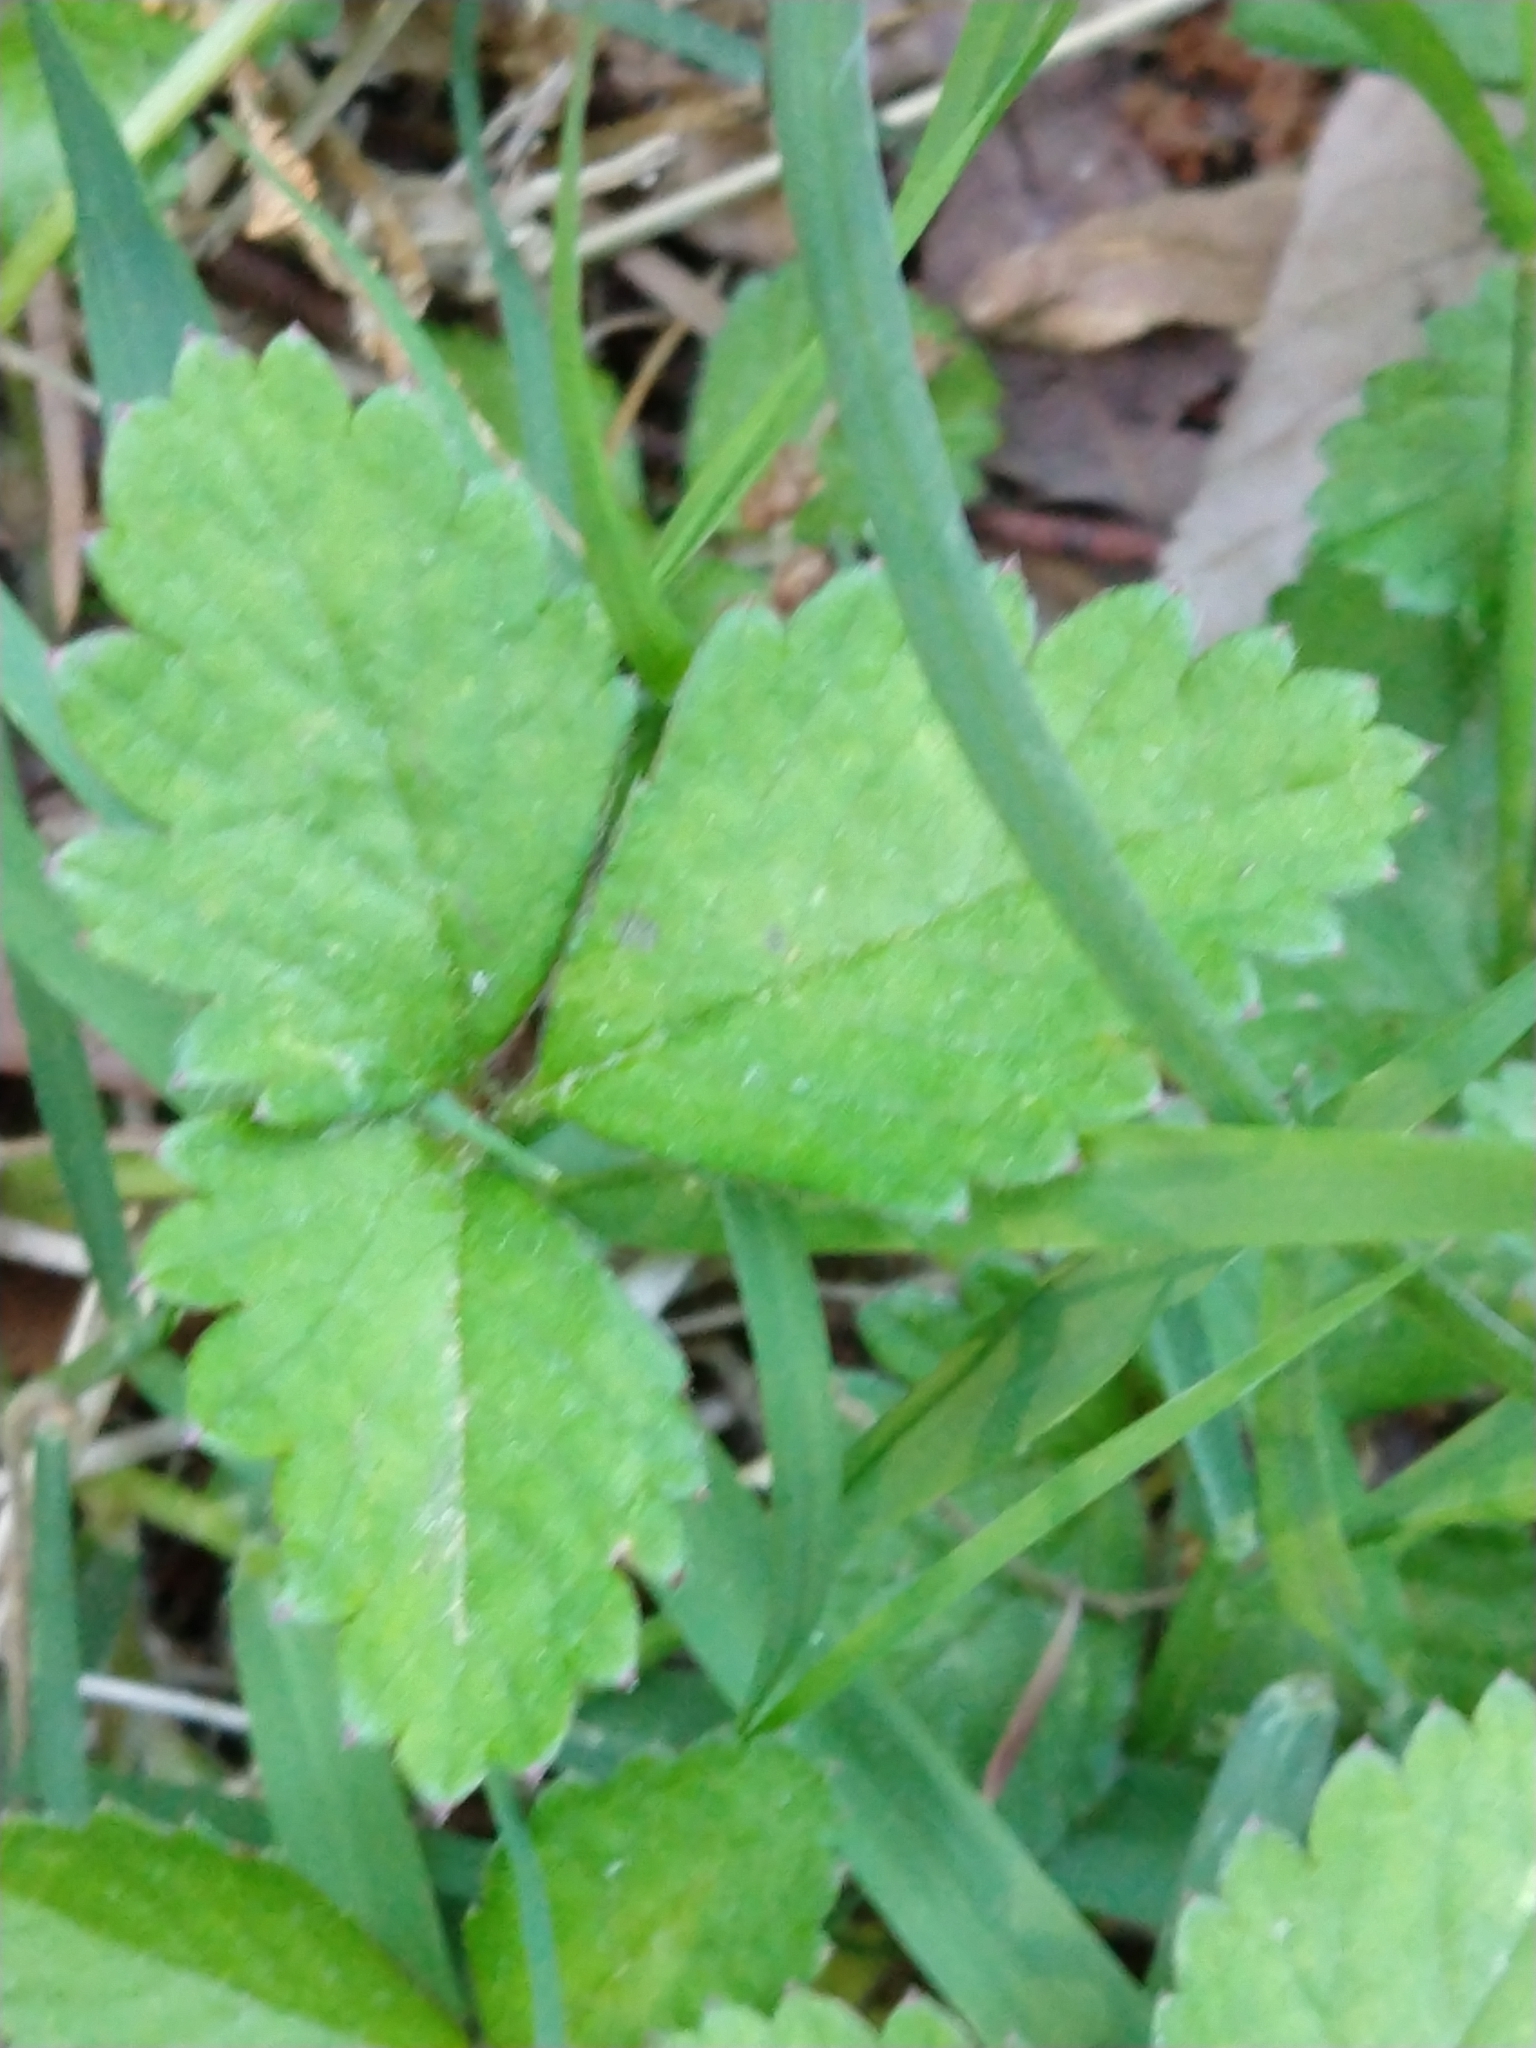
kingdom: Plantae
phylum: Tracheophyta
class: Magnoliopsida
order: Rosales
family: Rosaceae
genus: Potentilla
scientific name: Potentilla indica
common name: Yellow-flowered strawberry
